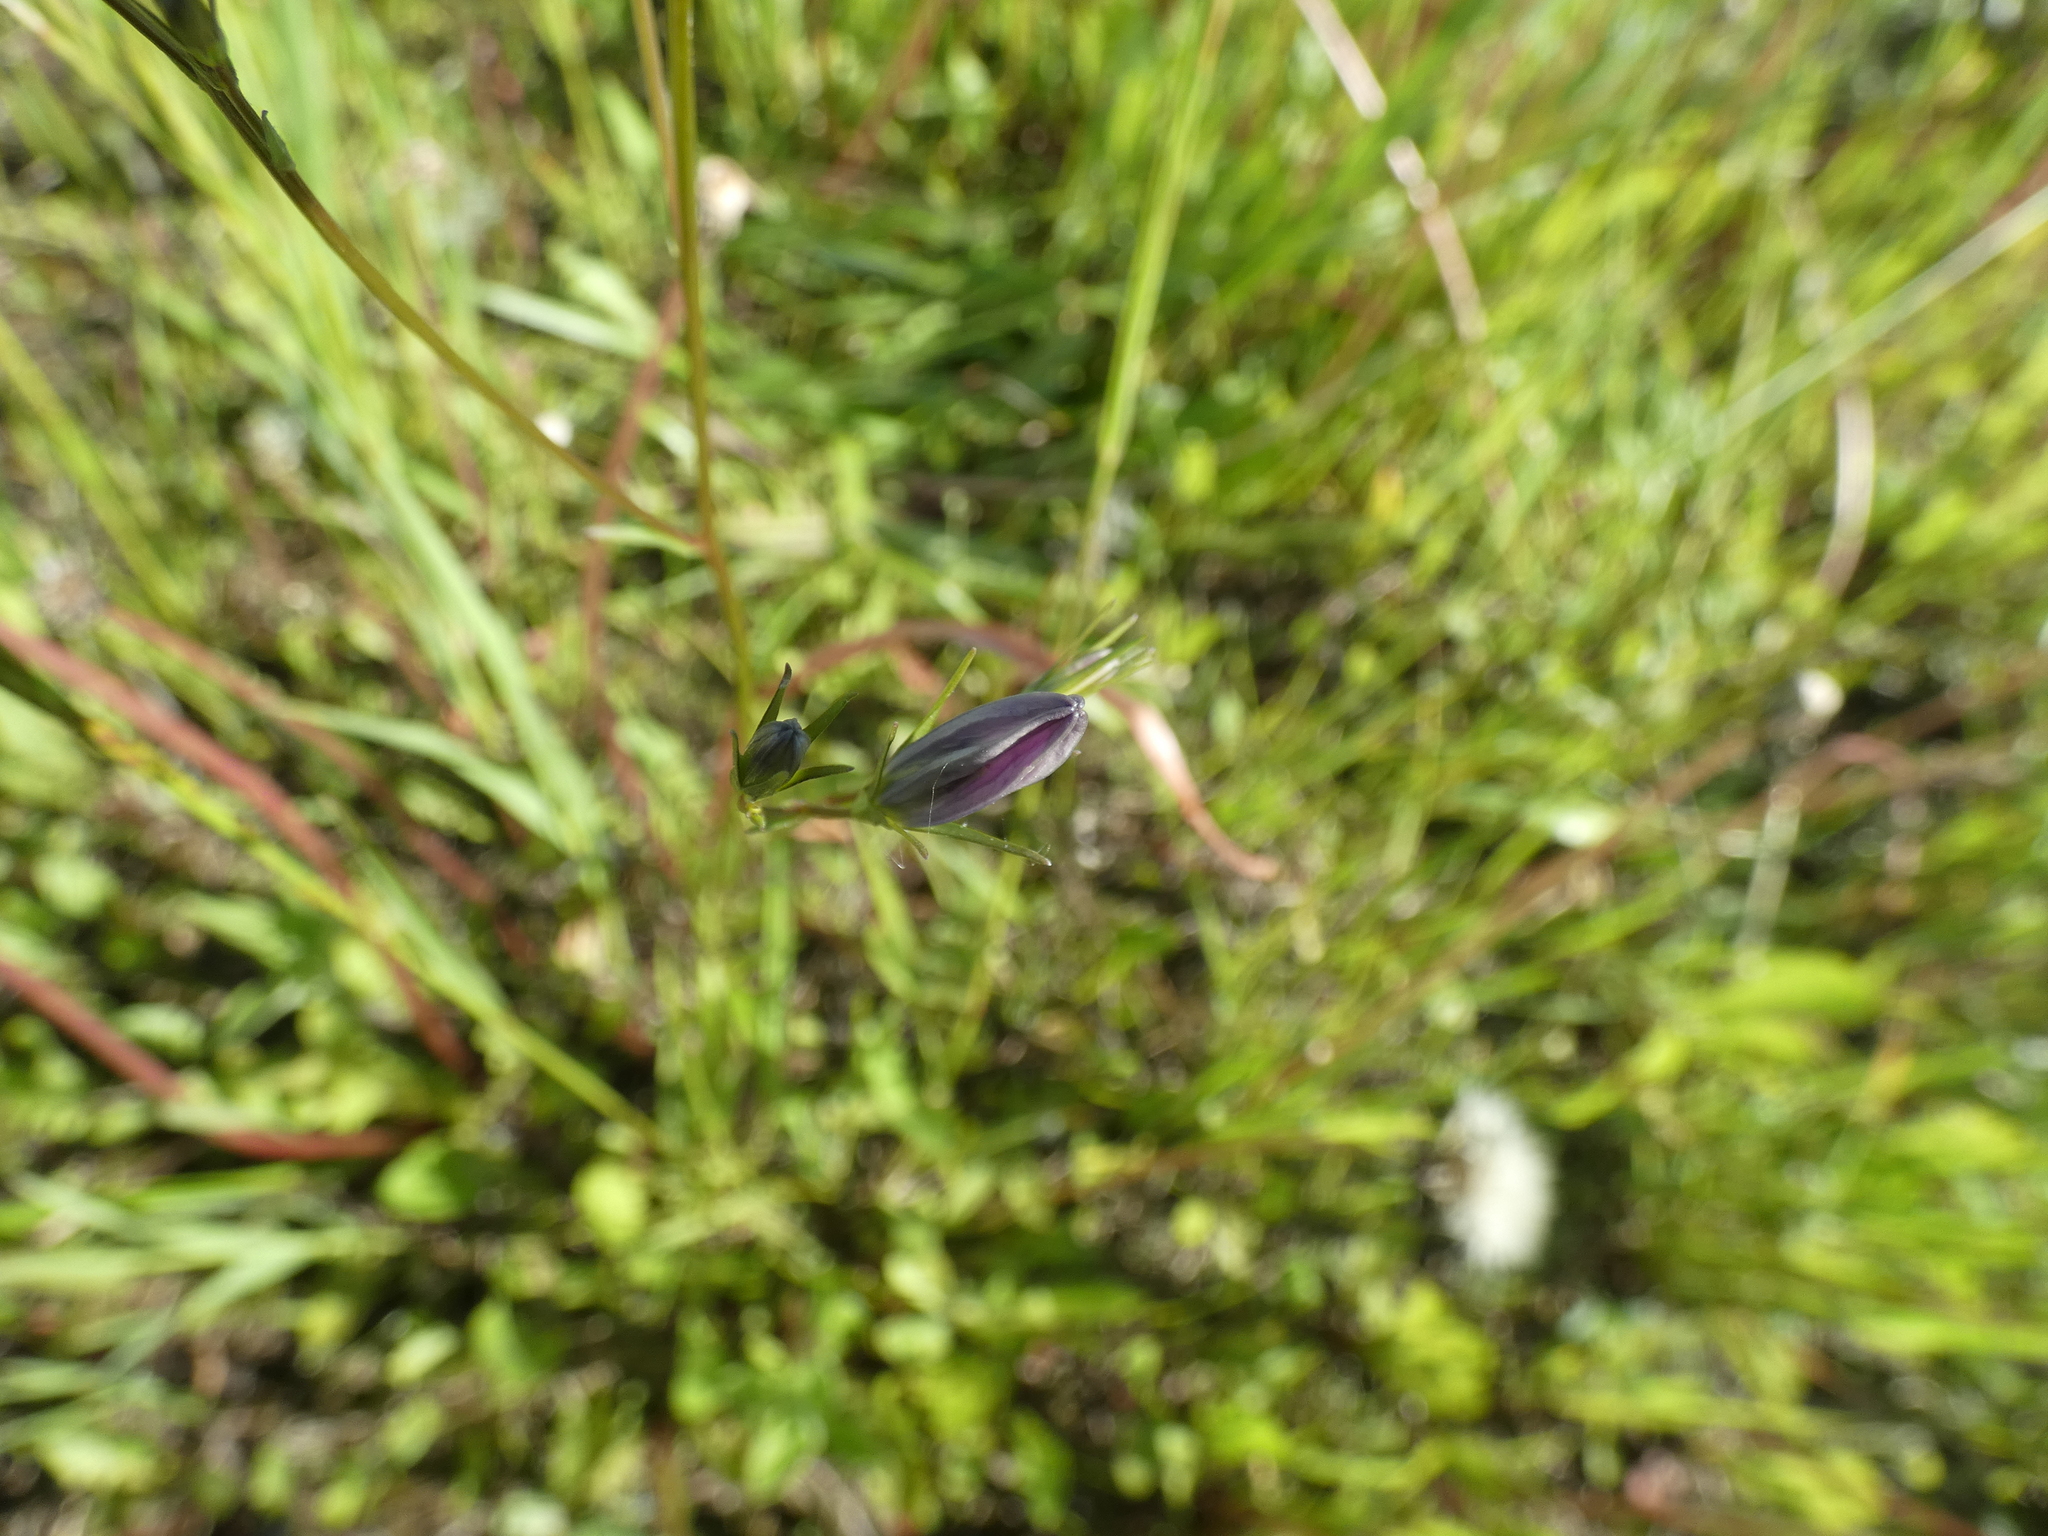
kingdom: Plantae
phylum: Tracheophyta
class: Magnoliopsida
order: Asterales
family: Campanulaceae
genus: Campanula
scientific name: Campanula patula
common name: Spreading bellflower
